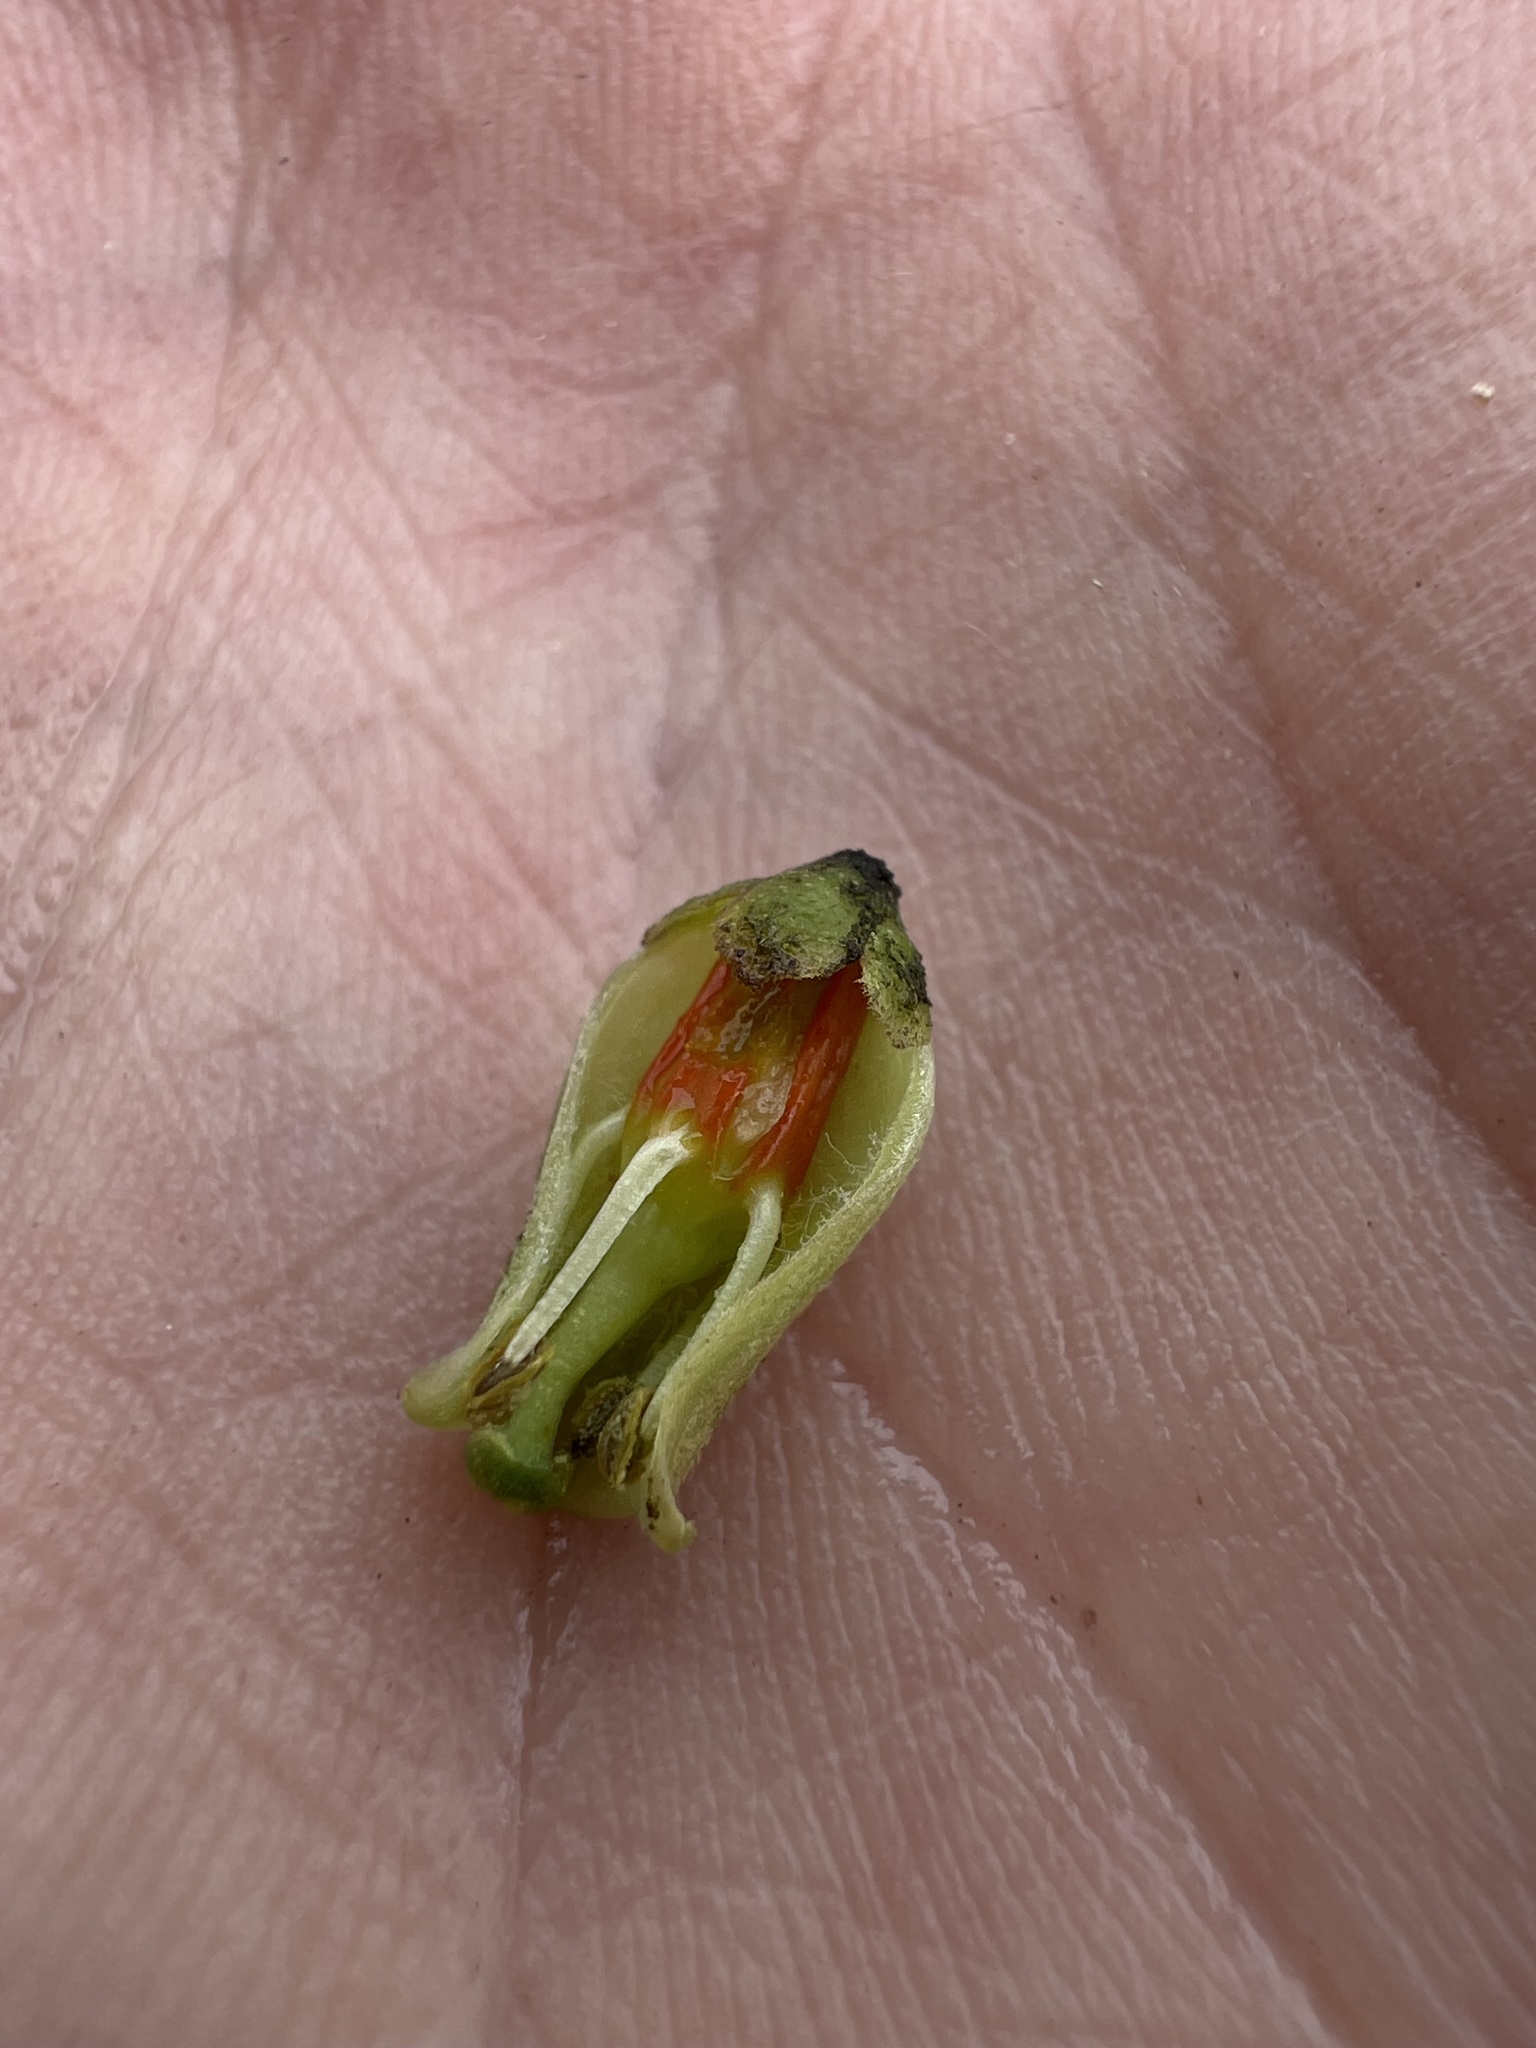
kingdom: Plantae
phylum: Tracheophyta
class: Magnoliopsida
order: Sapindales
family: Meliaceae
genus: Cedrela
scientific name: Cedrela montana
